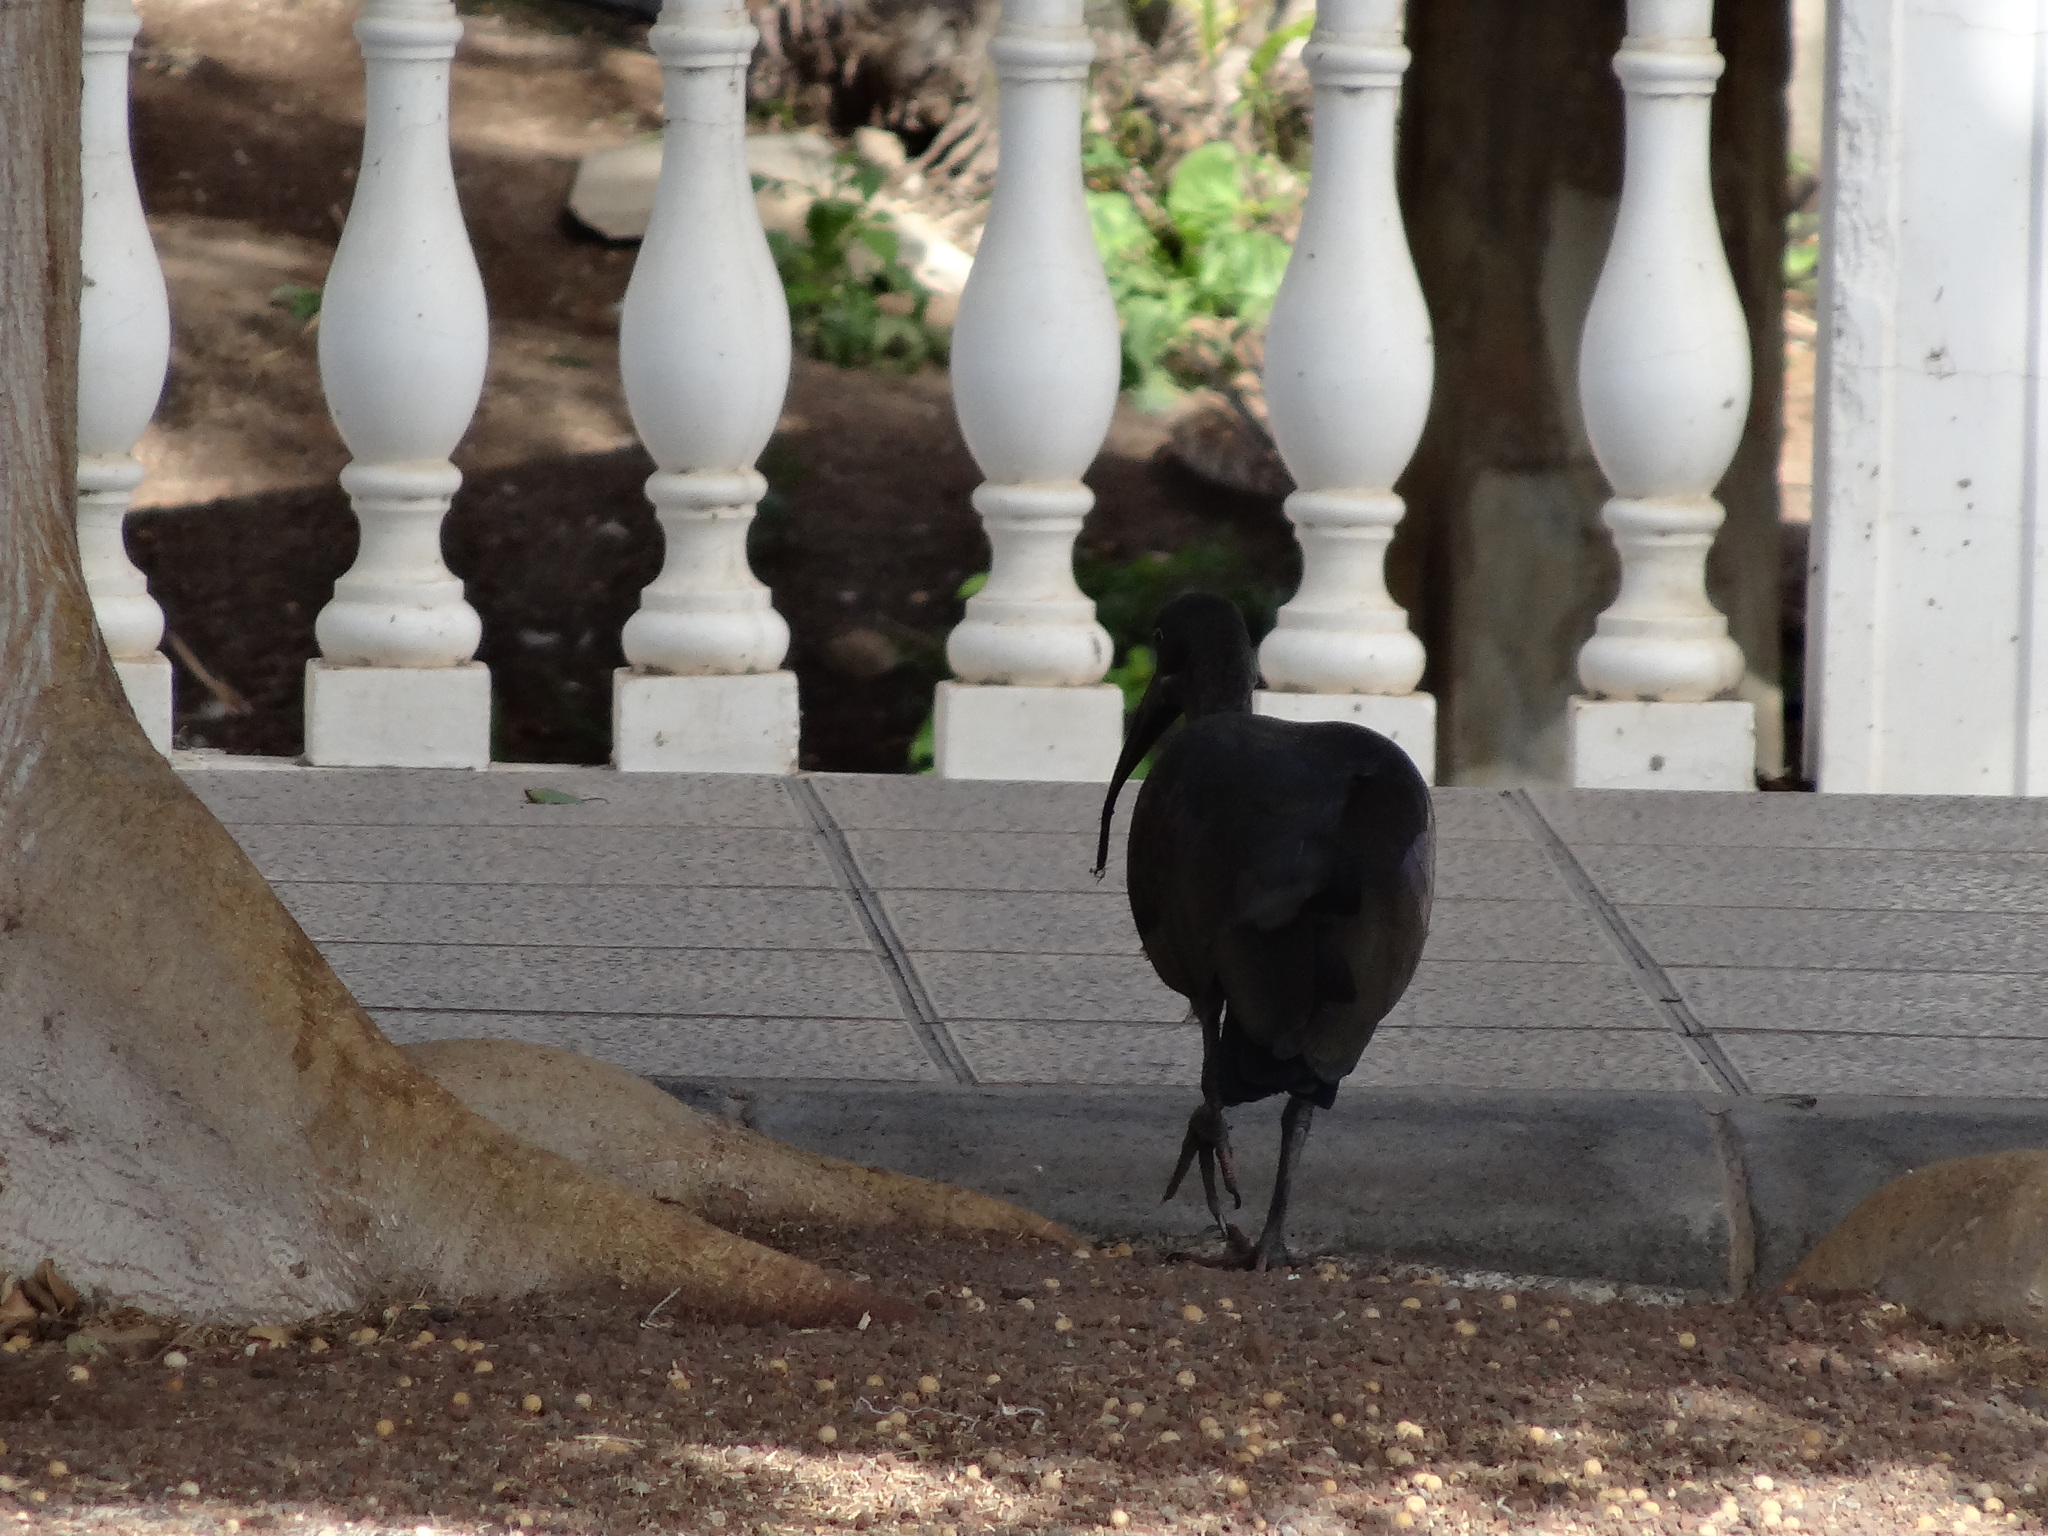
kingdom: Animalia
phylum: Chordata
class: Aves
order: Pelecaniformes
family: Threskiornithidae
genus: Bostrychia
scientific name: Bostrychia hagedash
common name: Hadada ibis
